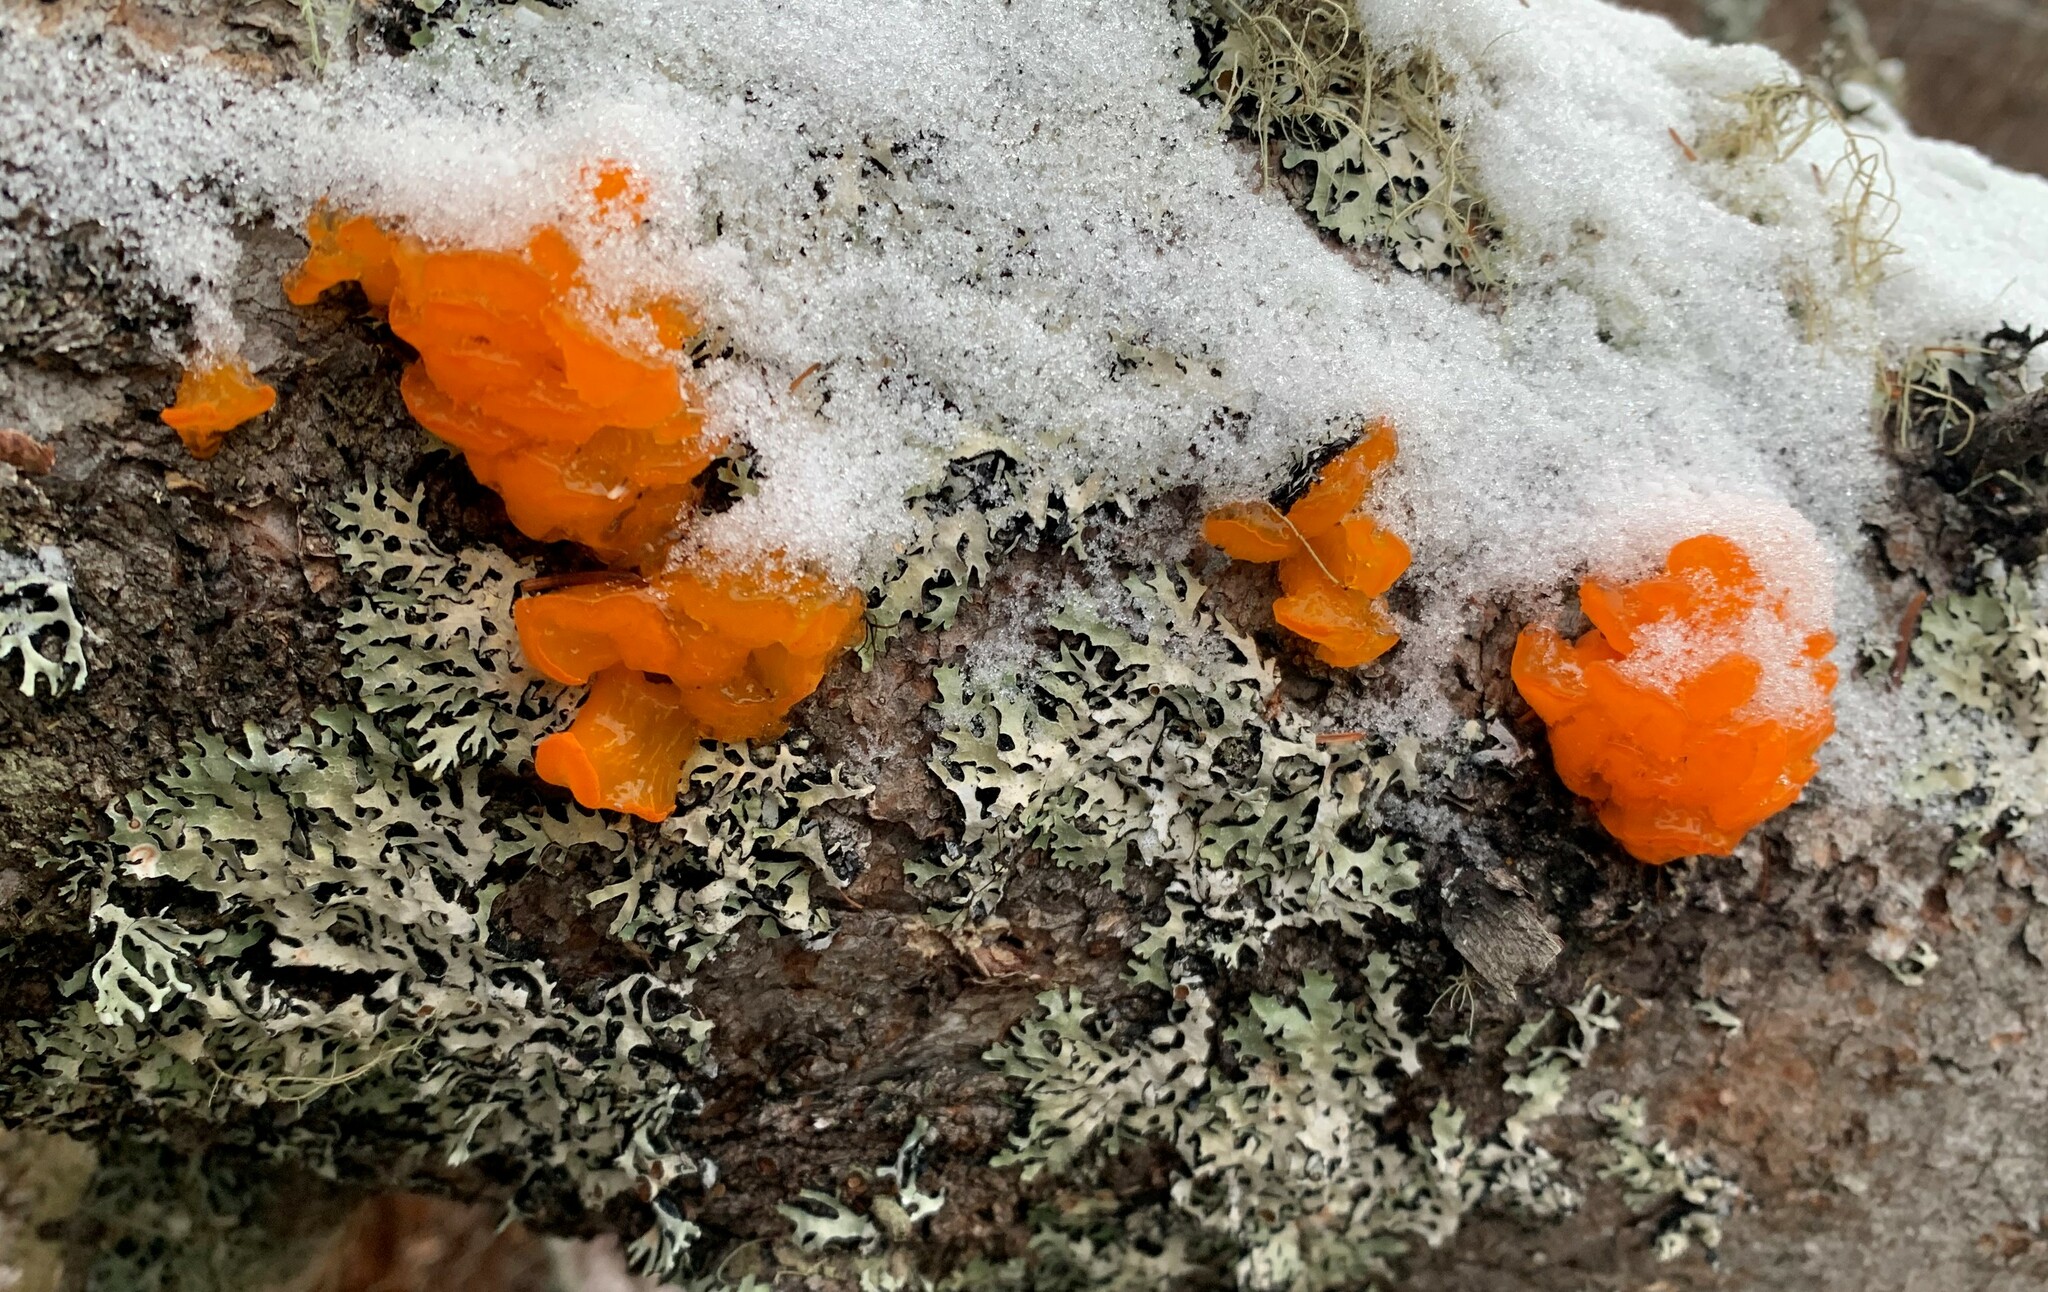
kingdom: Fungi
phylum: Basidiomycota
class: Dacrymycetes
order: Dacrymycetales
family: Dacrymycetaceae
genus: Dacrymyces
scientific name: Dacrymyces chrysospermus
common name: Orange jelly spot
